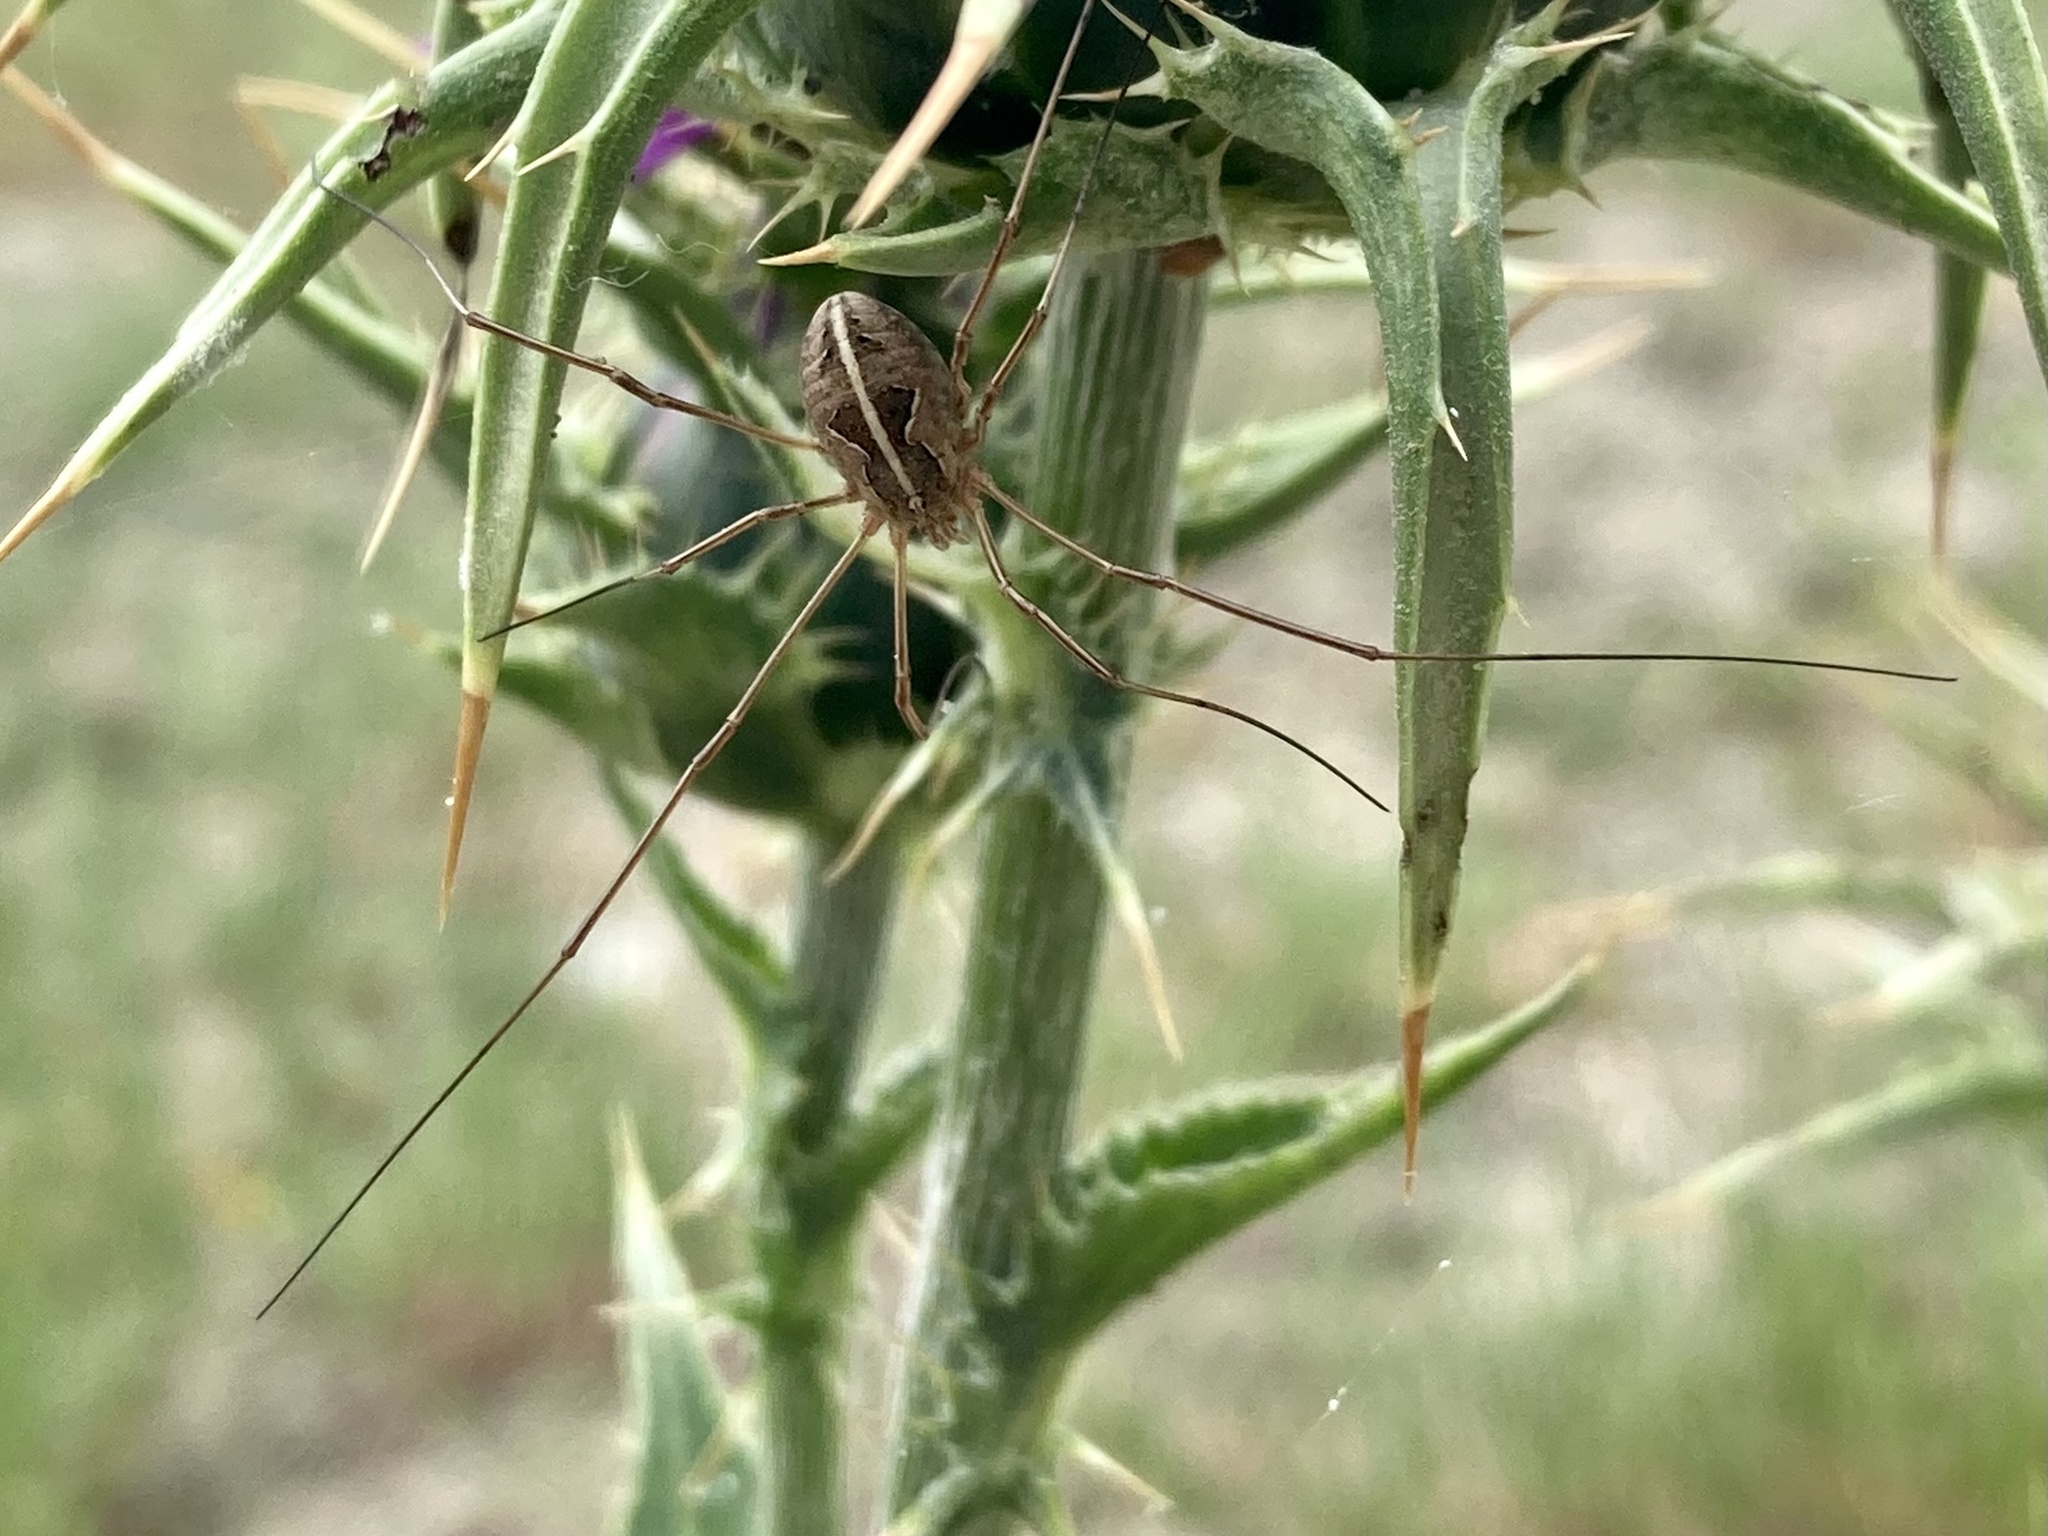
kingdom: Animalia
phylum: Arthropoda
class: Arachnida
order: Opiliones
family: Phalangiidae
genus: Metaphalangium
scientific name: Metaphalangium cirtanum
